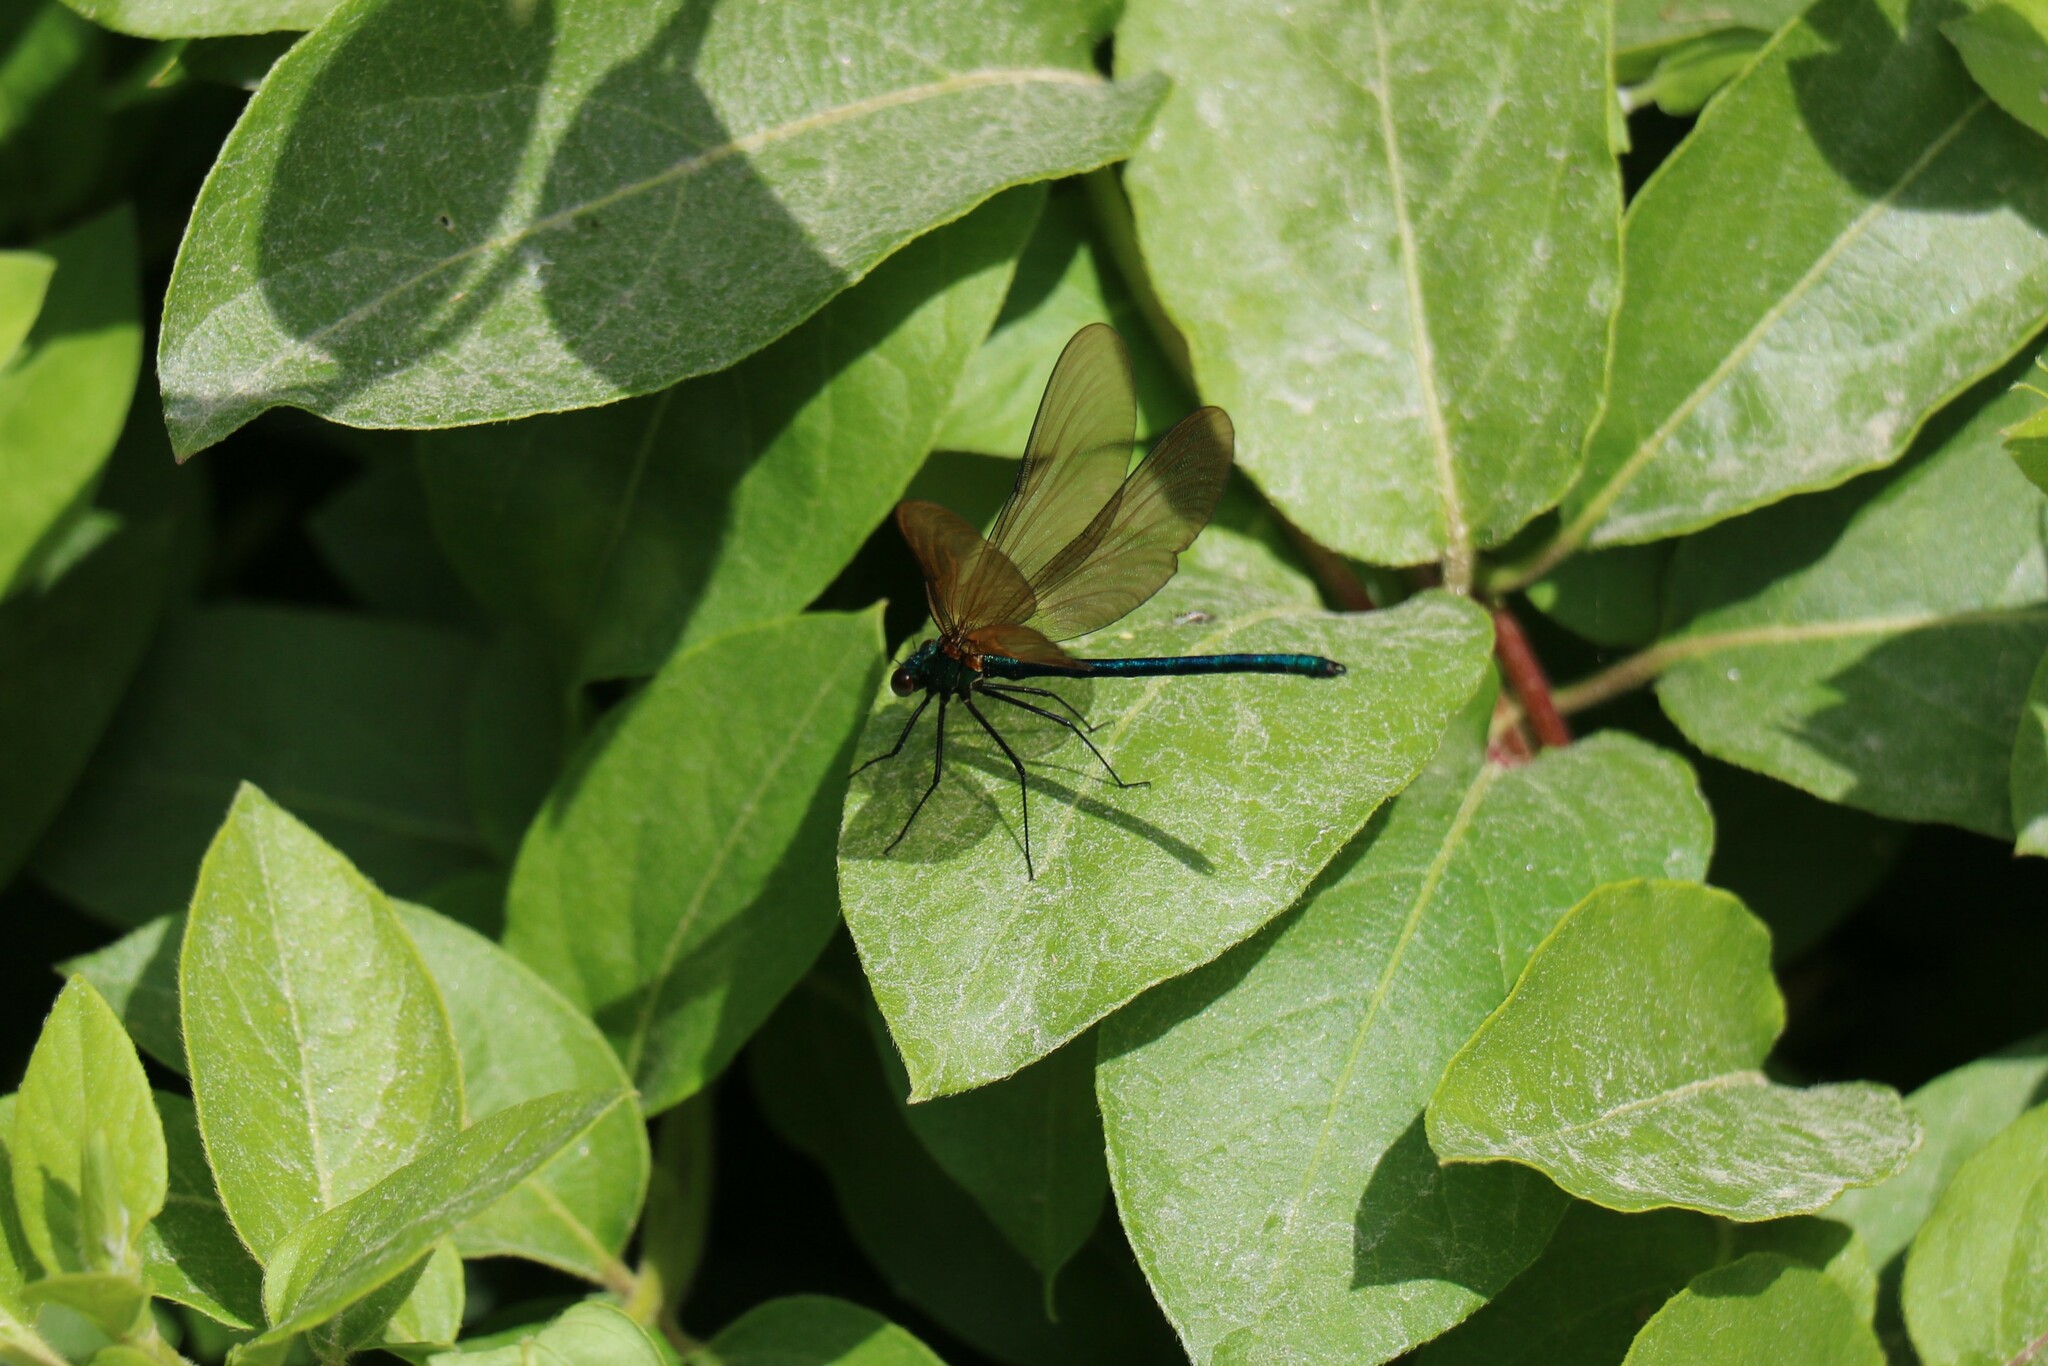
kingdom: Animalia
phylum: Arthropoda
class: Insecta
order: Odonata
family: Calopterygidae
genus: Calopteryx
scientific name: Calopteryx virgo
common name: Beautiful demoiselle
